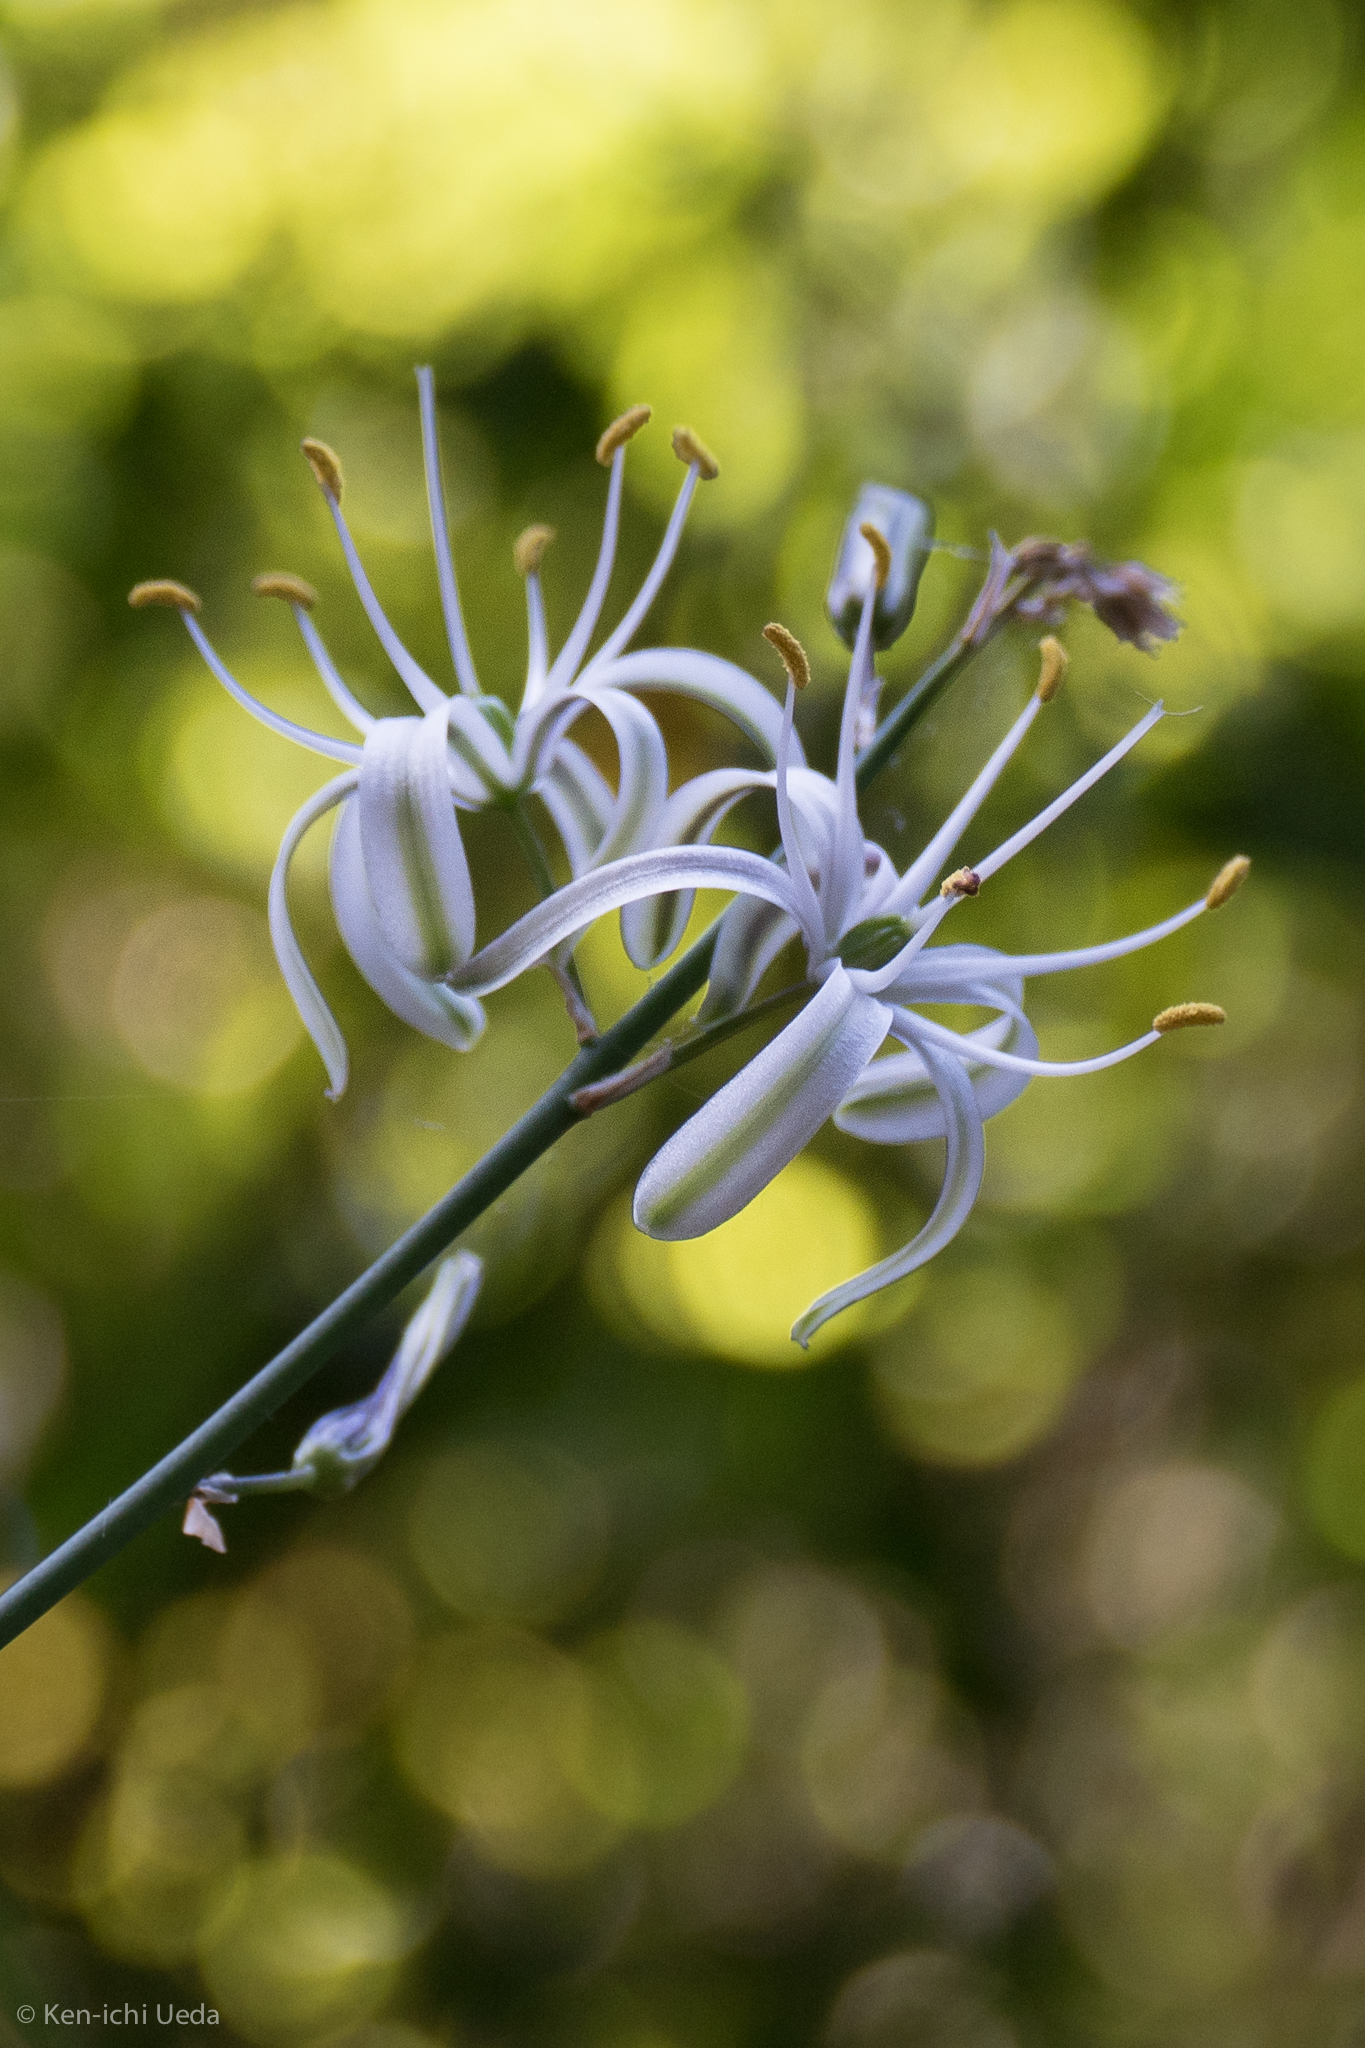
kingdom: Plantae
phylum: Tracheophyta
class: Liliopsida
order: Asparagales
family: Asparagaceae
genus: Chlorogalum
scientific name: Chlorogalum pomeridianum
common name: Amole
